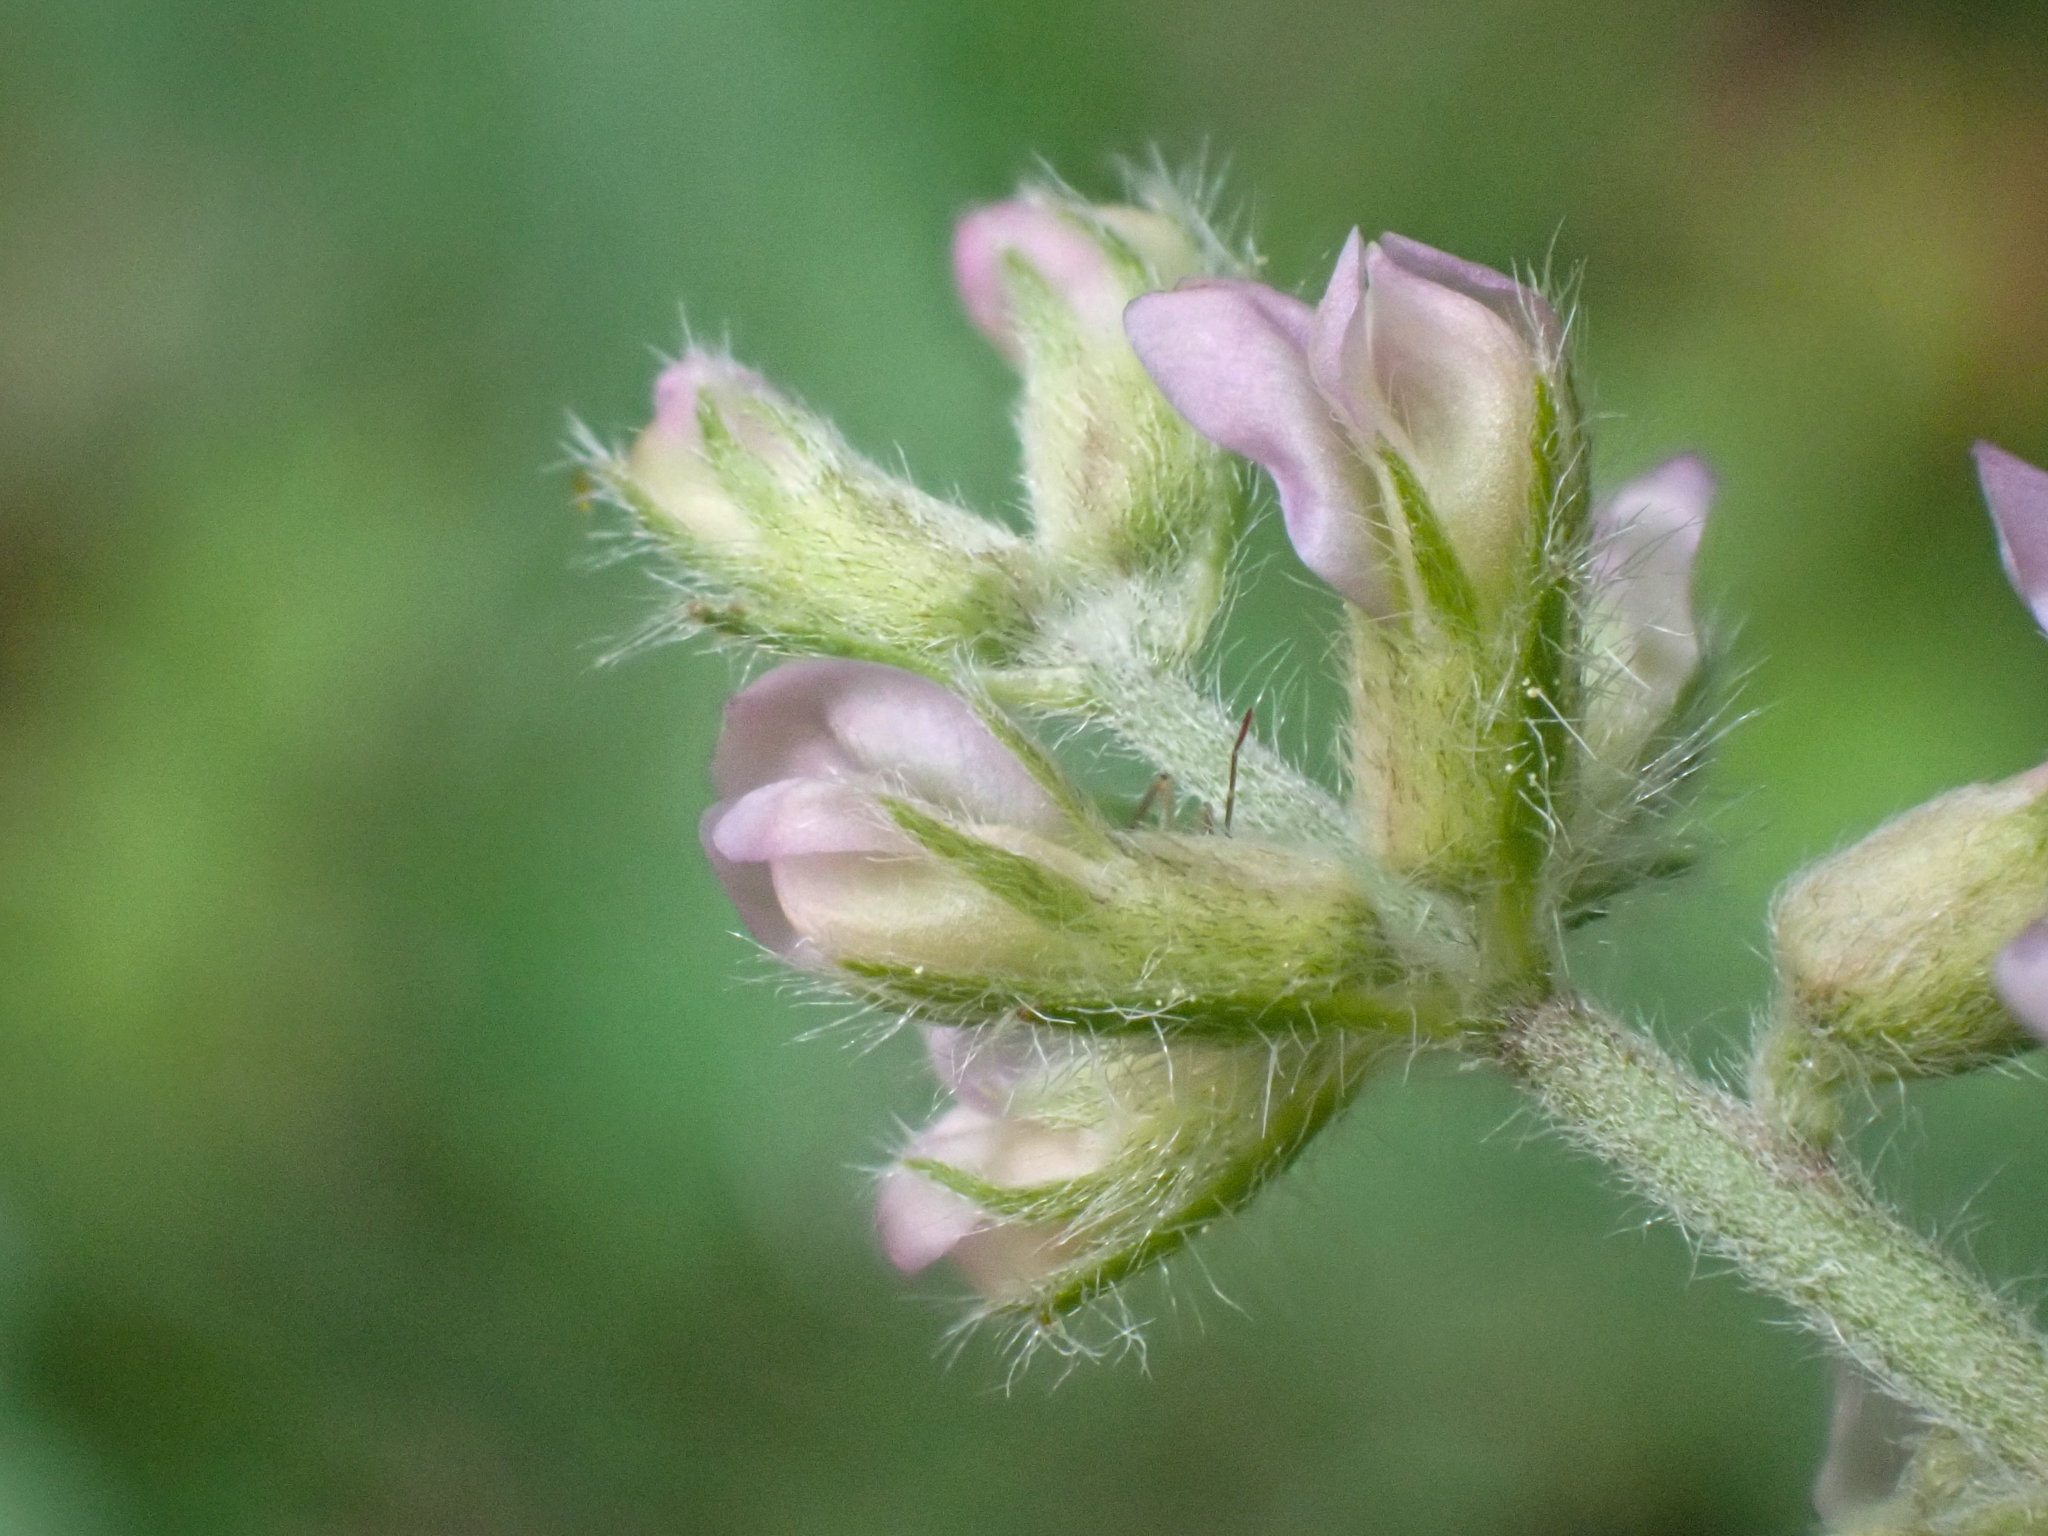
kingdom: Plantae
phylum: Tracheophyta
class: Magnoliopsida
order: Fabales
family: Fabaceae
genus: Oxytropis
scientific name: Oxytropis deflexa
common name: Stemmed oxytrope
